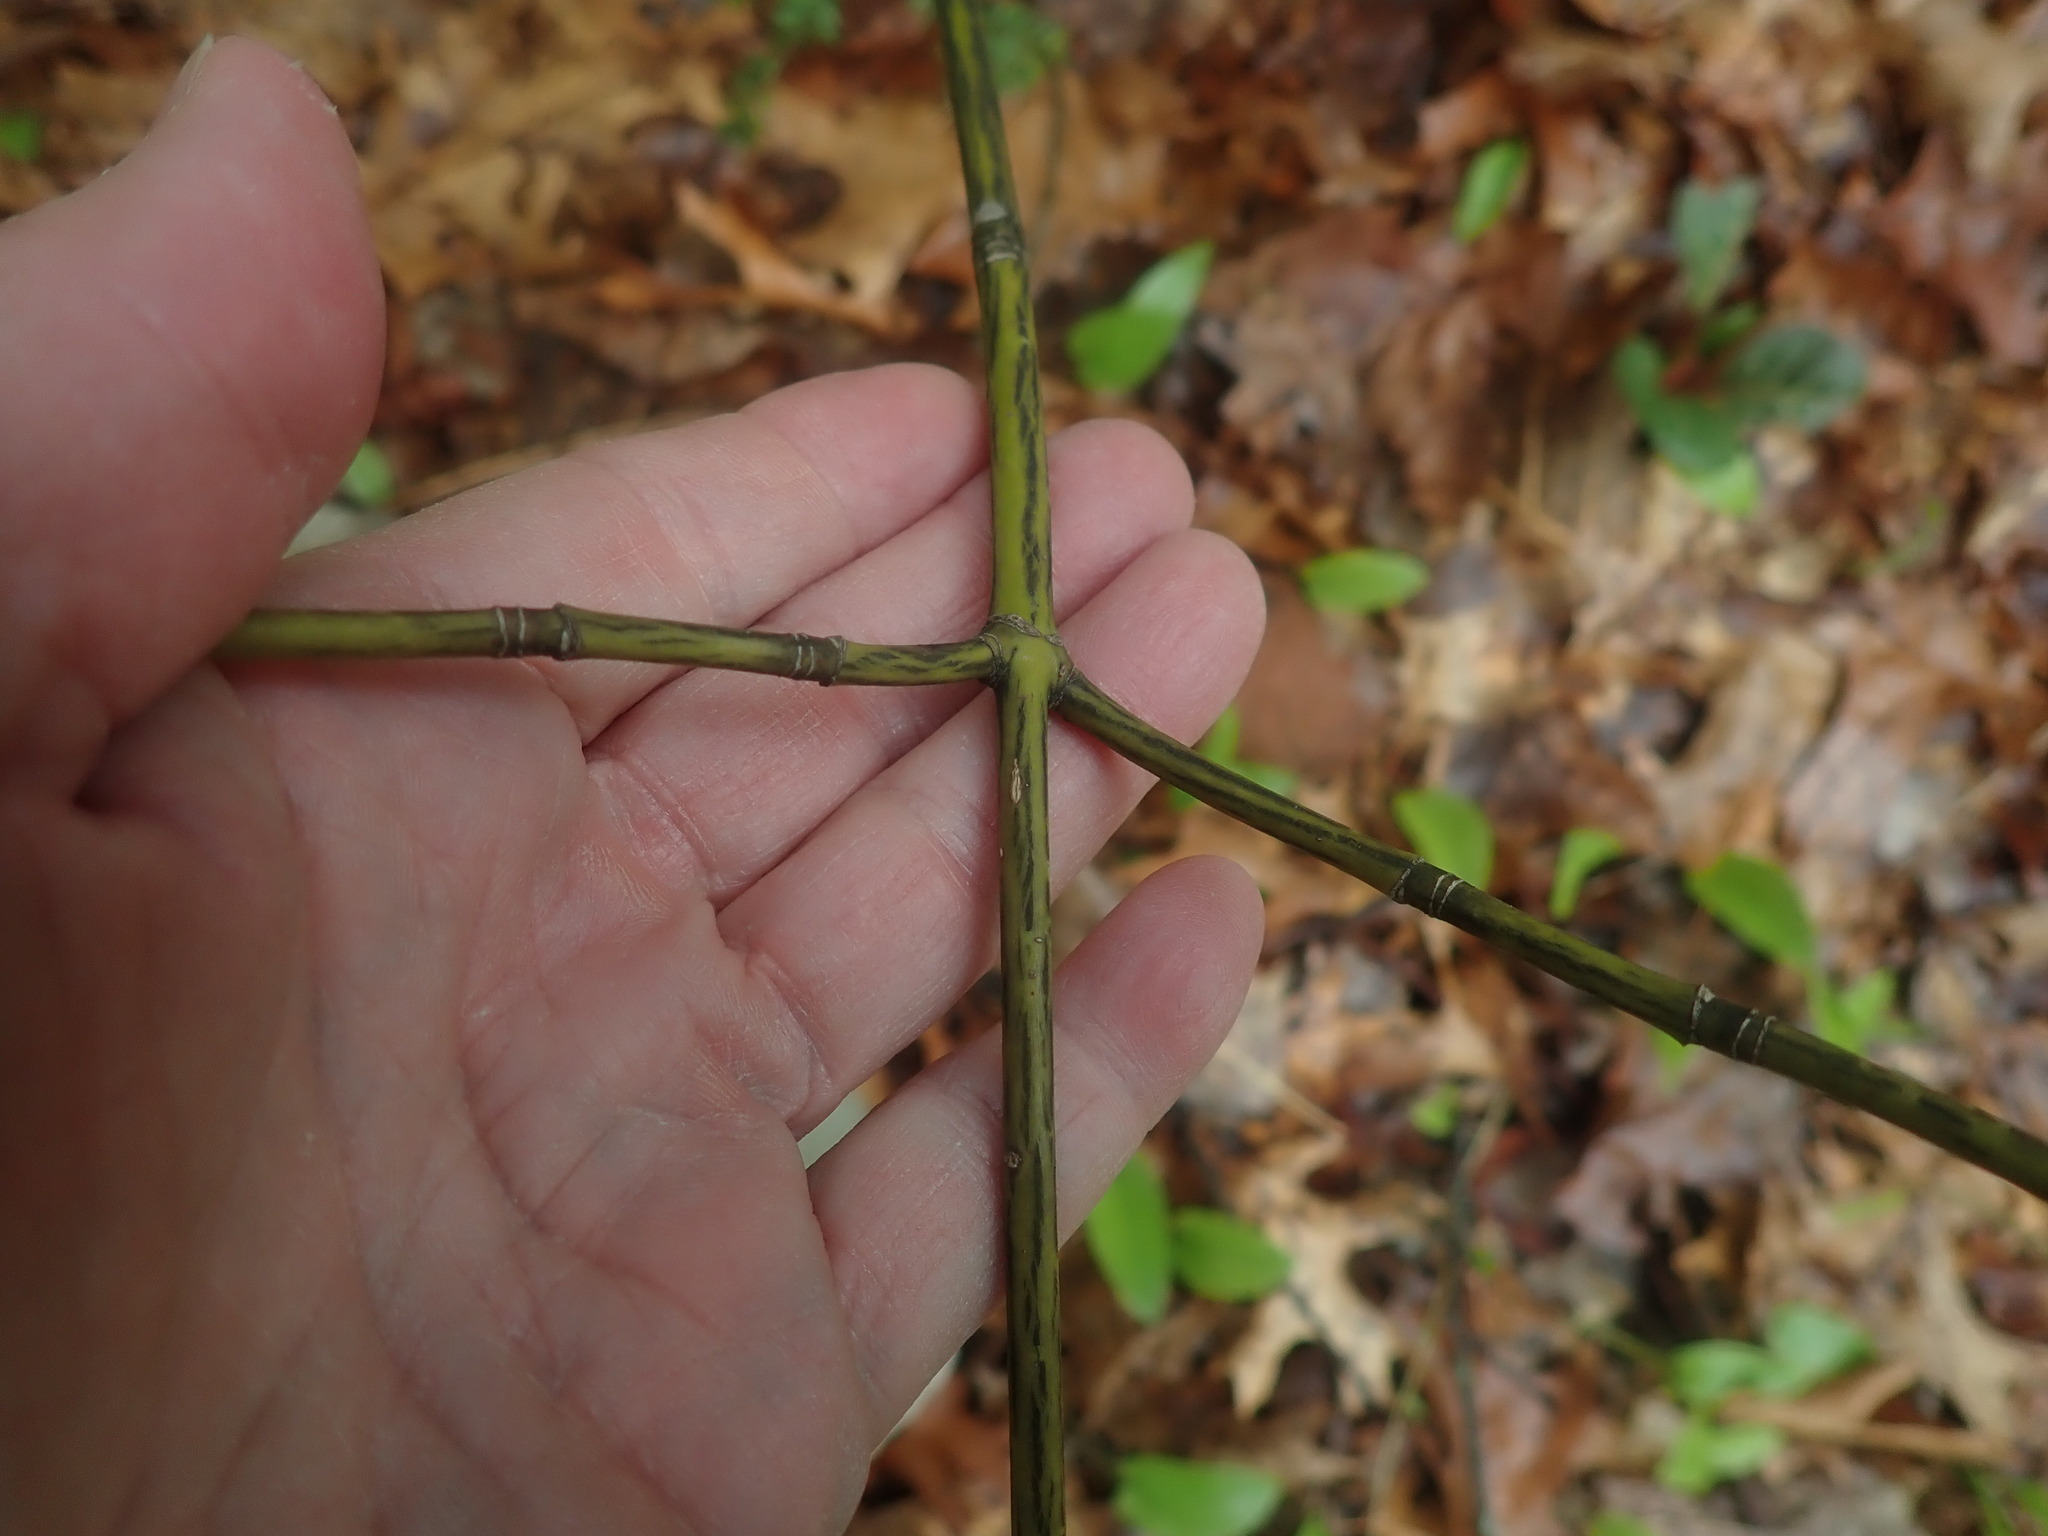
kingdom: Plantae
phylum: Tracheophyta
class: Magnoliopsida
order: Sapindales
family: Sapindaceae
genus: Acer
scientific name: Acer pensylvanicum
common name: Moosewood
